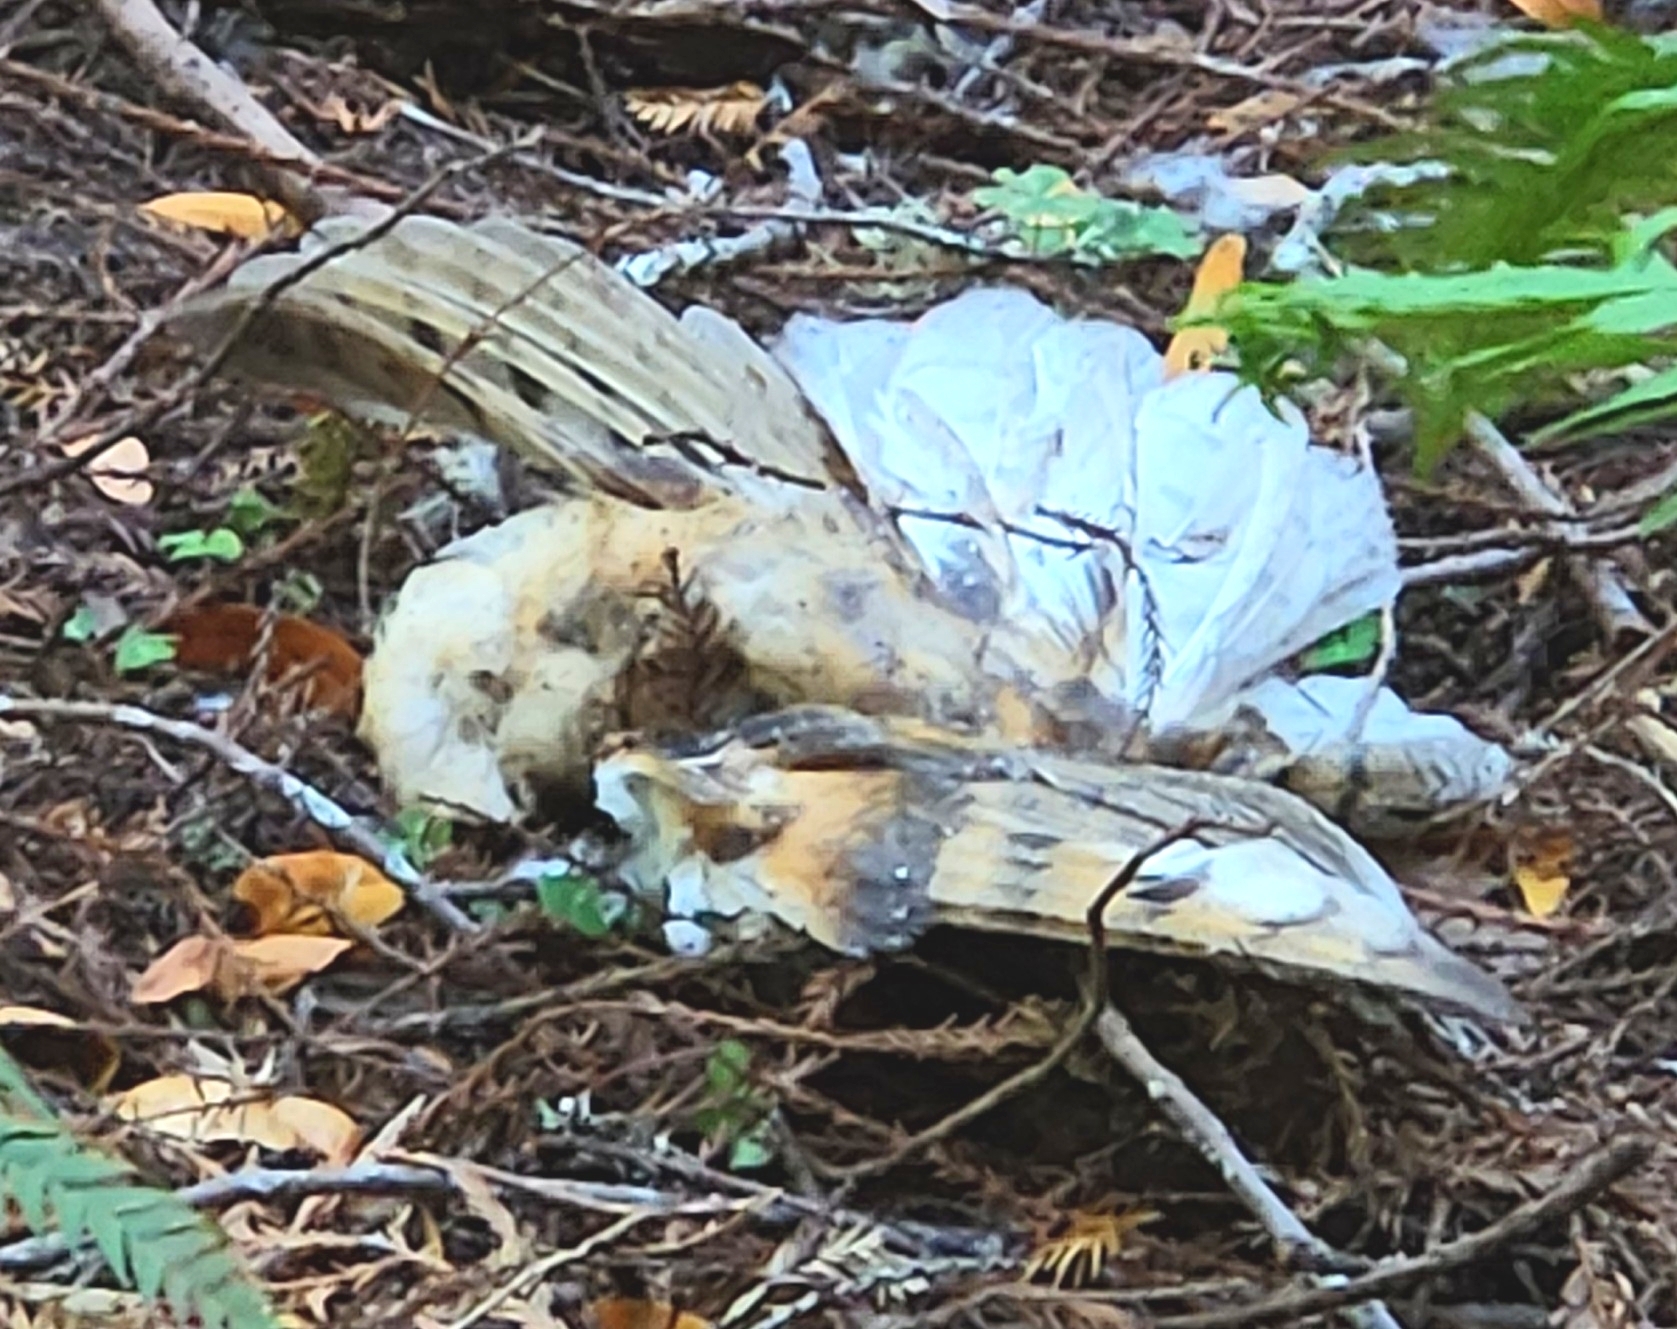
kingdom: Animalia
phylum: Chordata
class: Aves
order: Strigiformes
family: Tytonidae
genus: Tyto
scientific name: Tyto alba
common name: Barn owl
